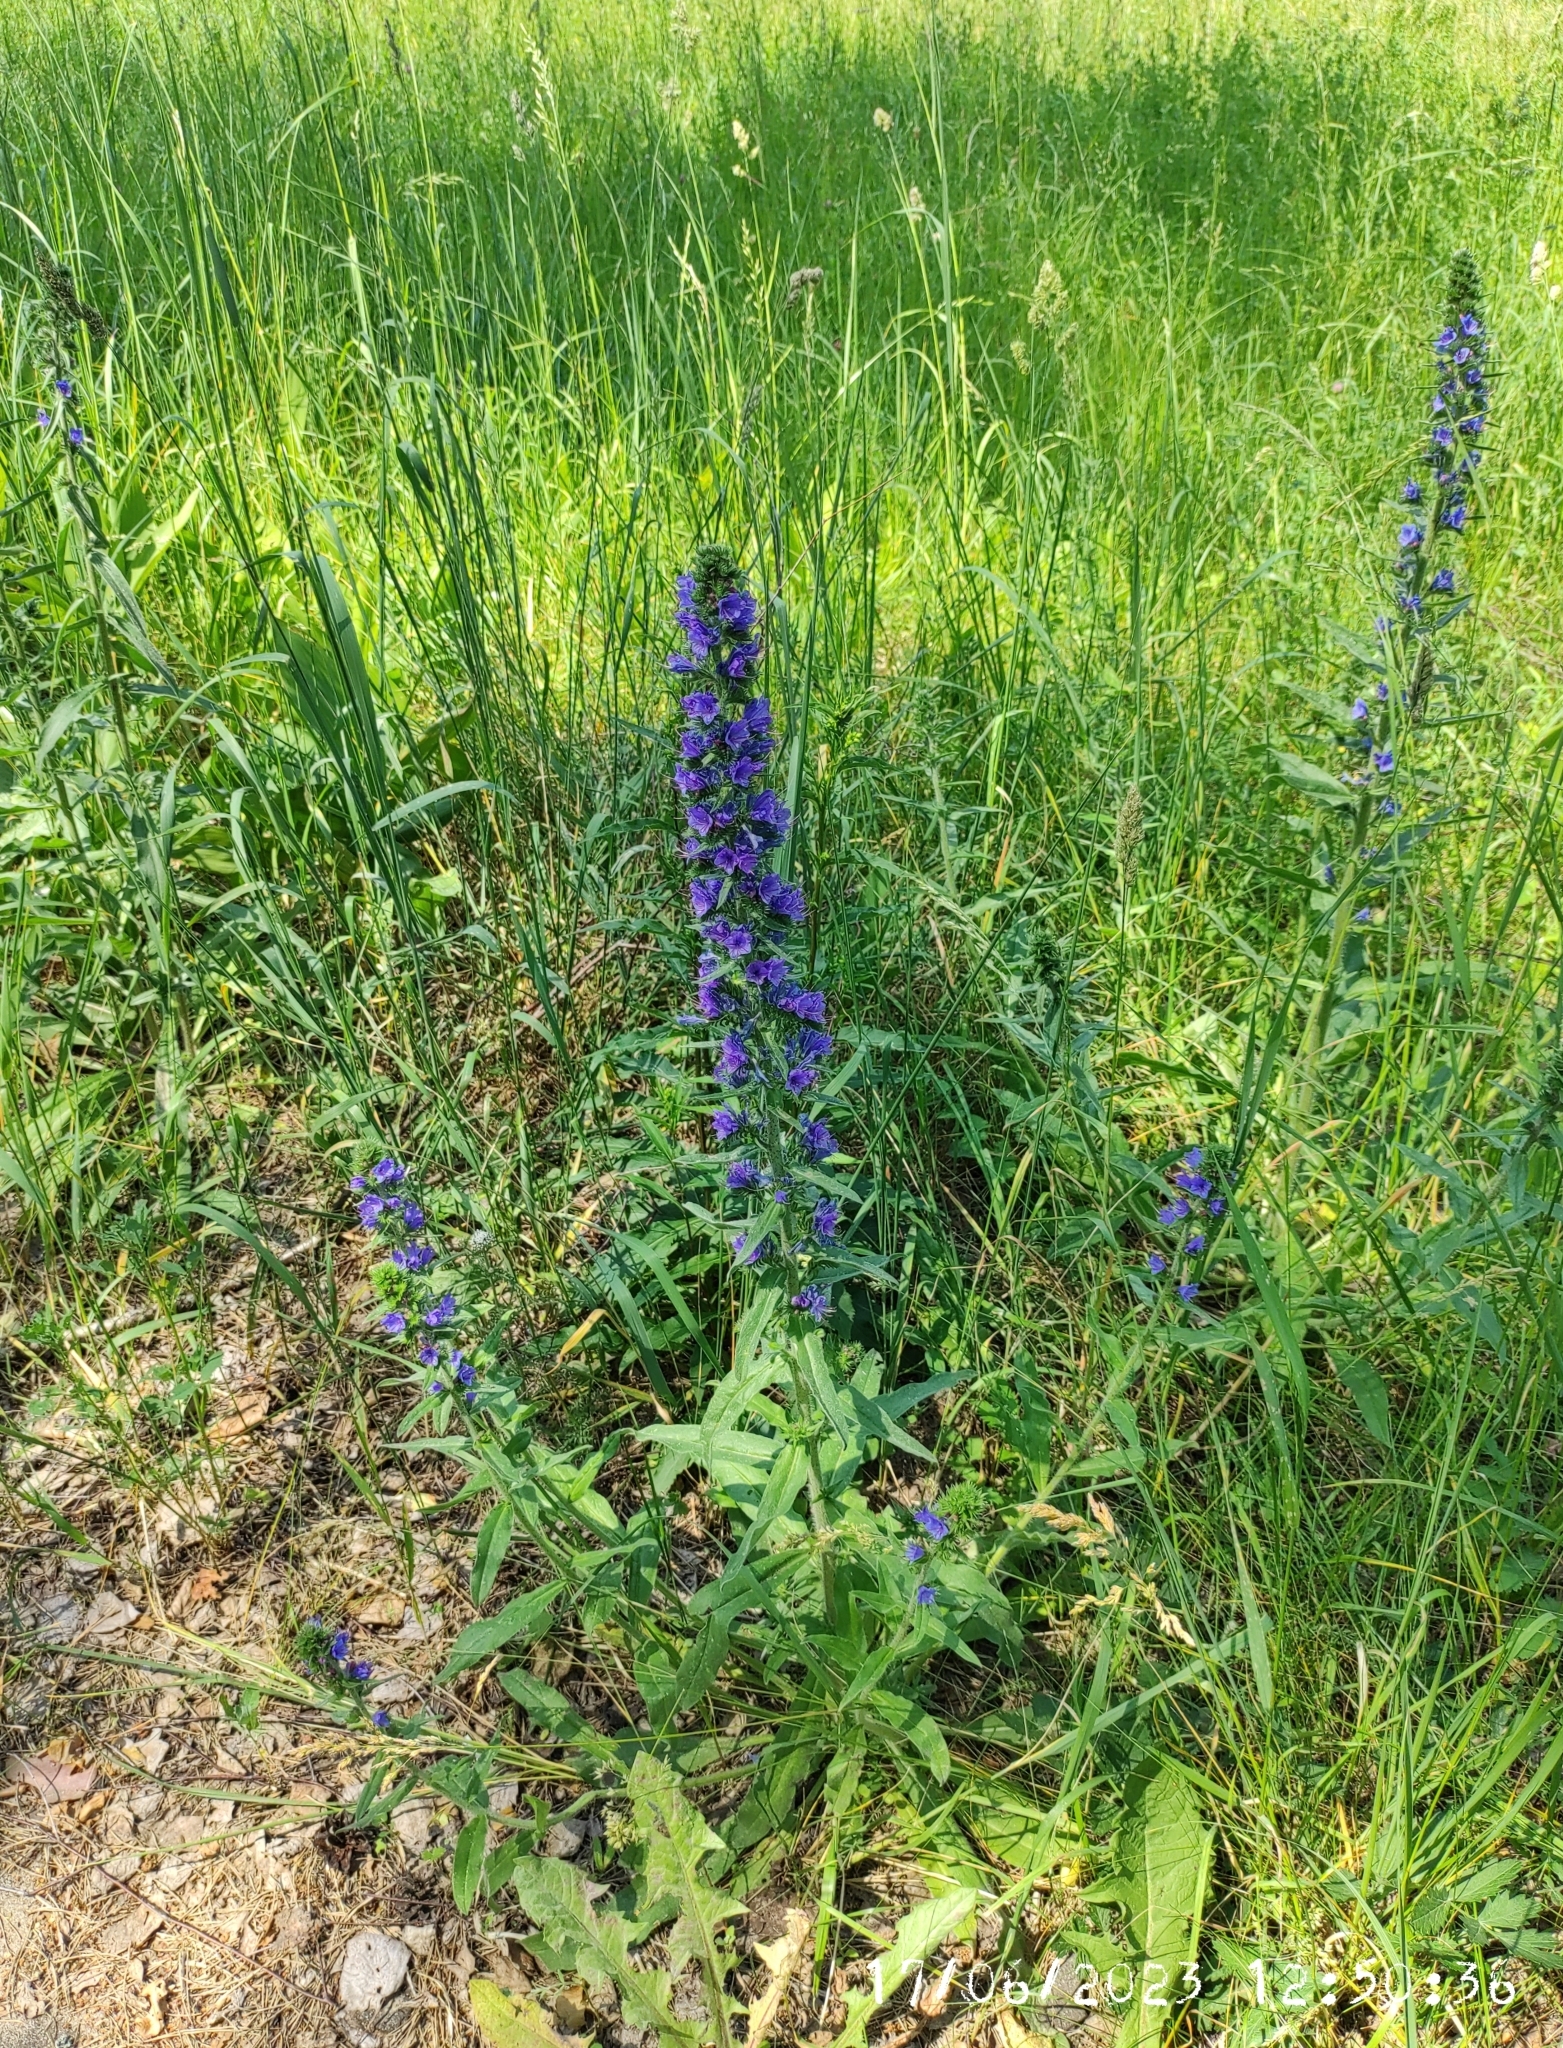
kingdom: Plantae
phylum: Tracheophyta
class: Magnoliopsida
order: Boraginales
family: Boraginaceae
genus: Echium
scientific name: Echium vulgare
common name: Common viper's bugloss
